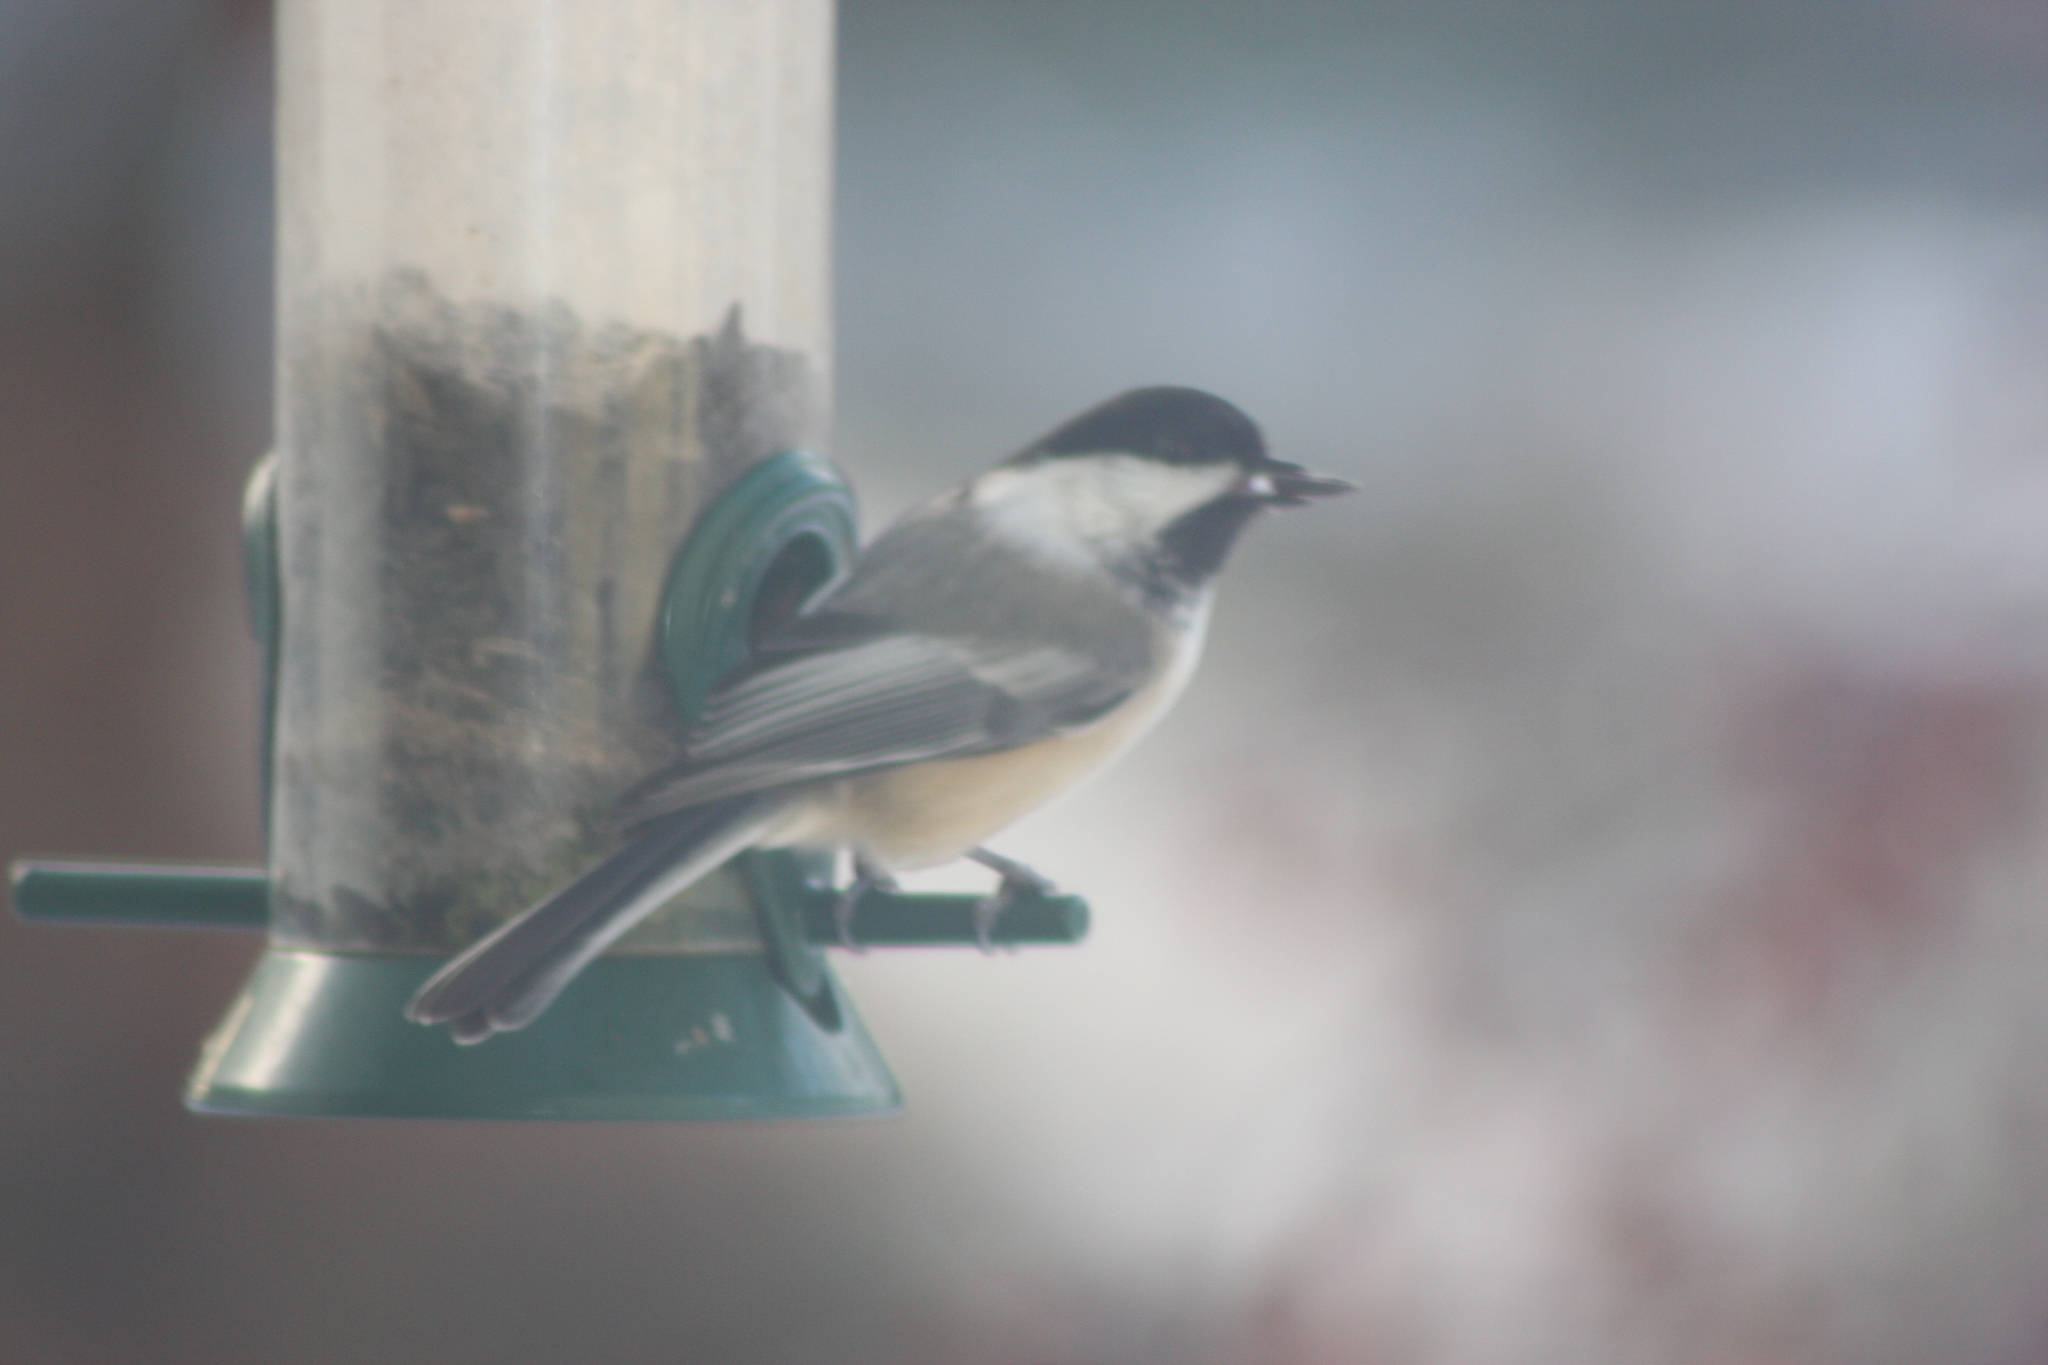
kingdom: Animalia
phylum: Chordata
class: Aves
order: Passeriformes
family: Paridae
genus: Poecile
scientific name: Poecile atricapillus
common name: Black-capped chickadee
